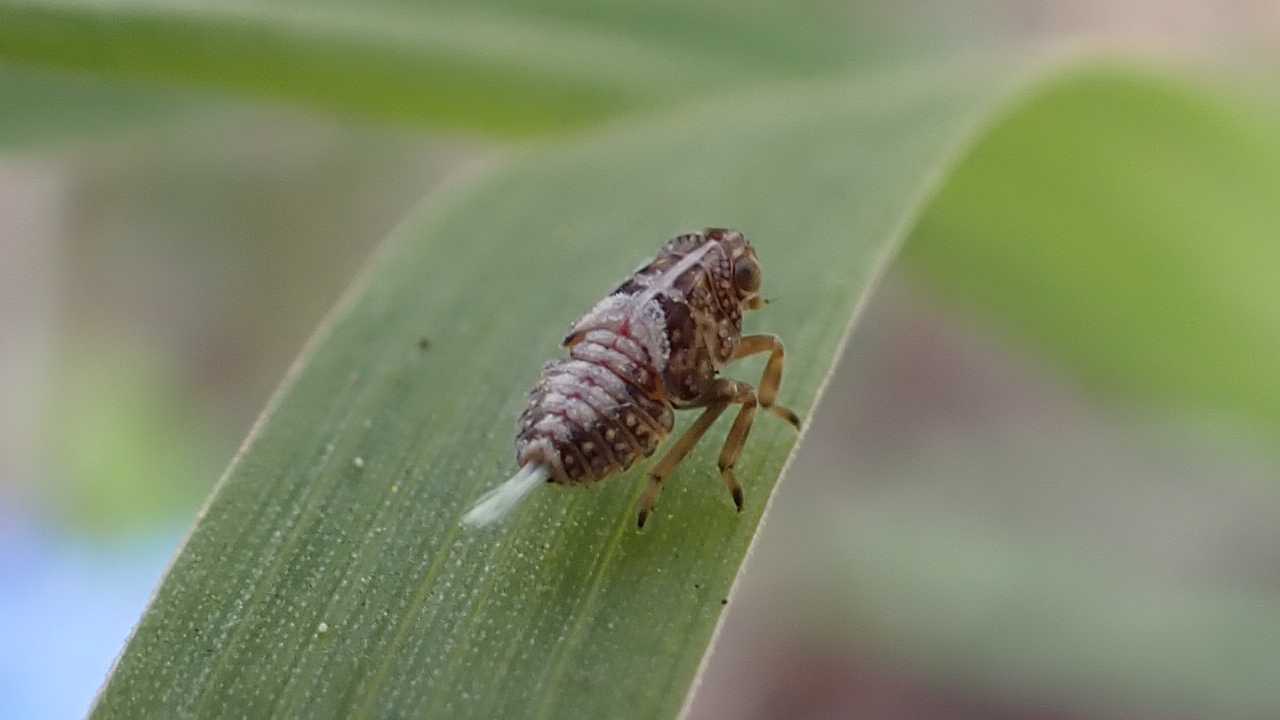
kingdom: Animalia
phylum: Arthropoda
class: Insecta
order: Hemiptera
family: Issidae
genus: Issus
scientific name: Issus coleoptratus
